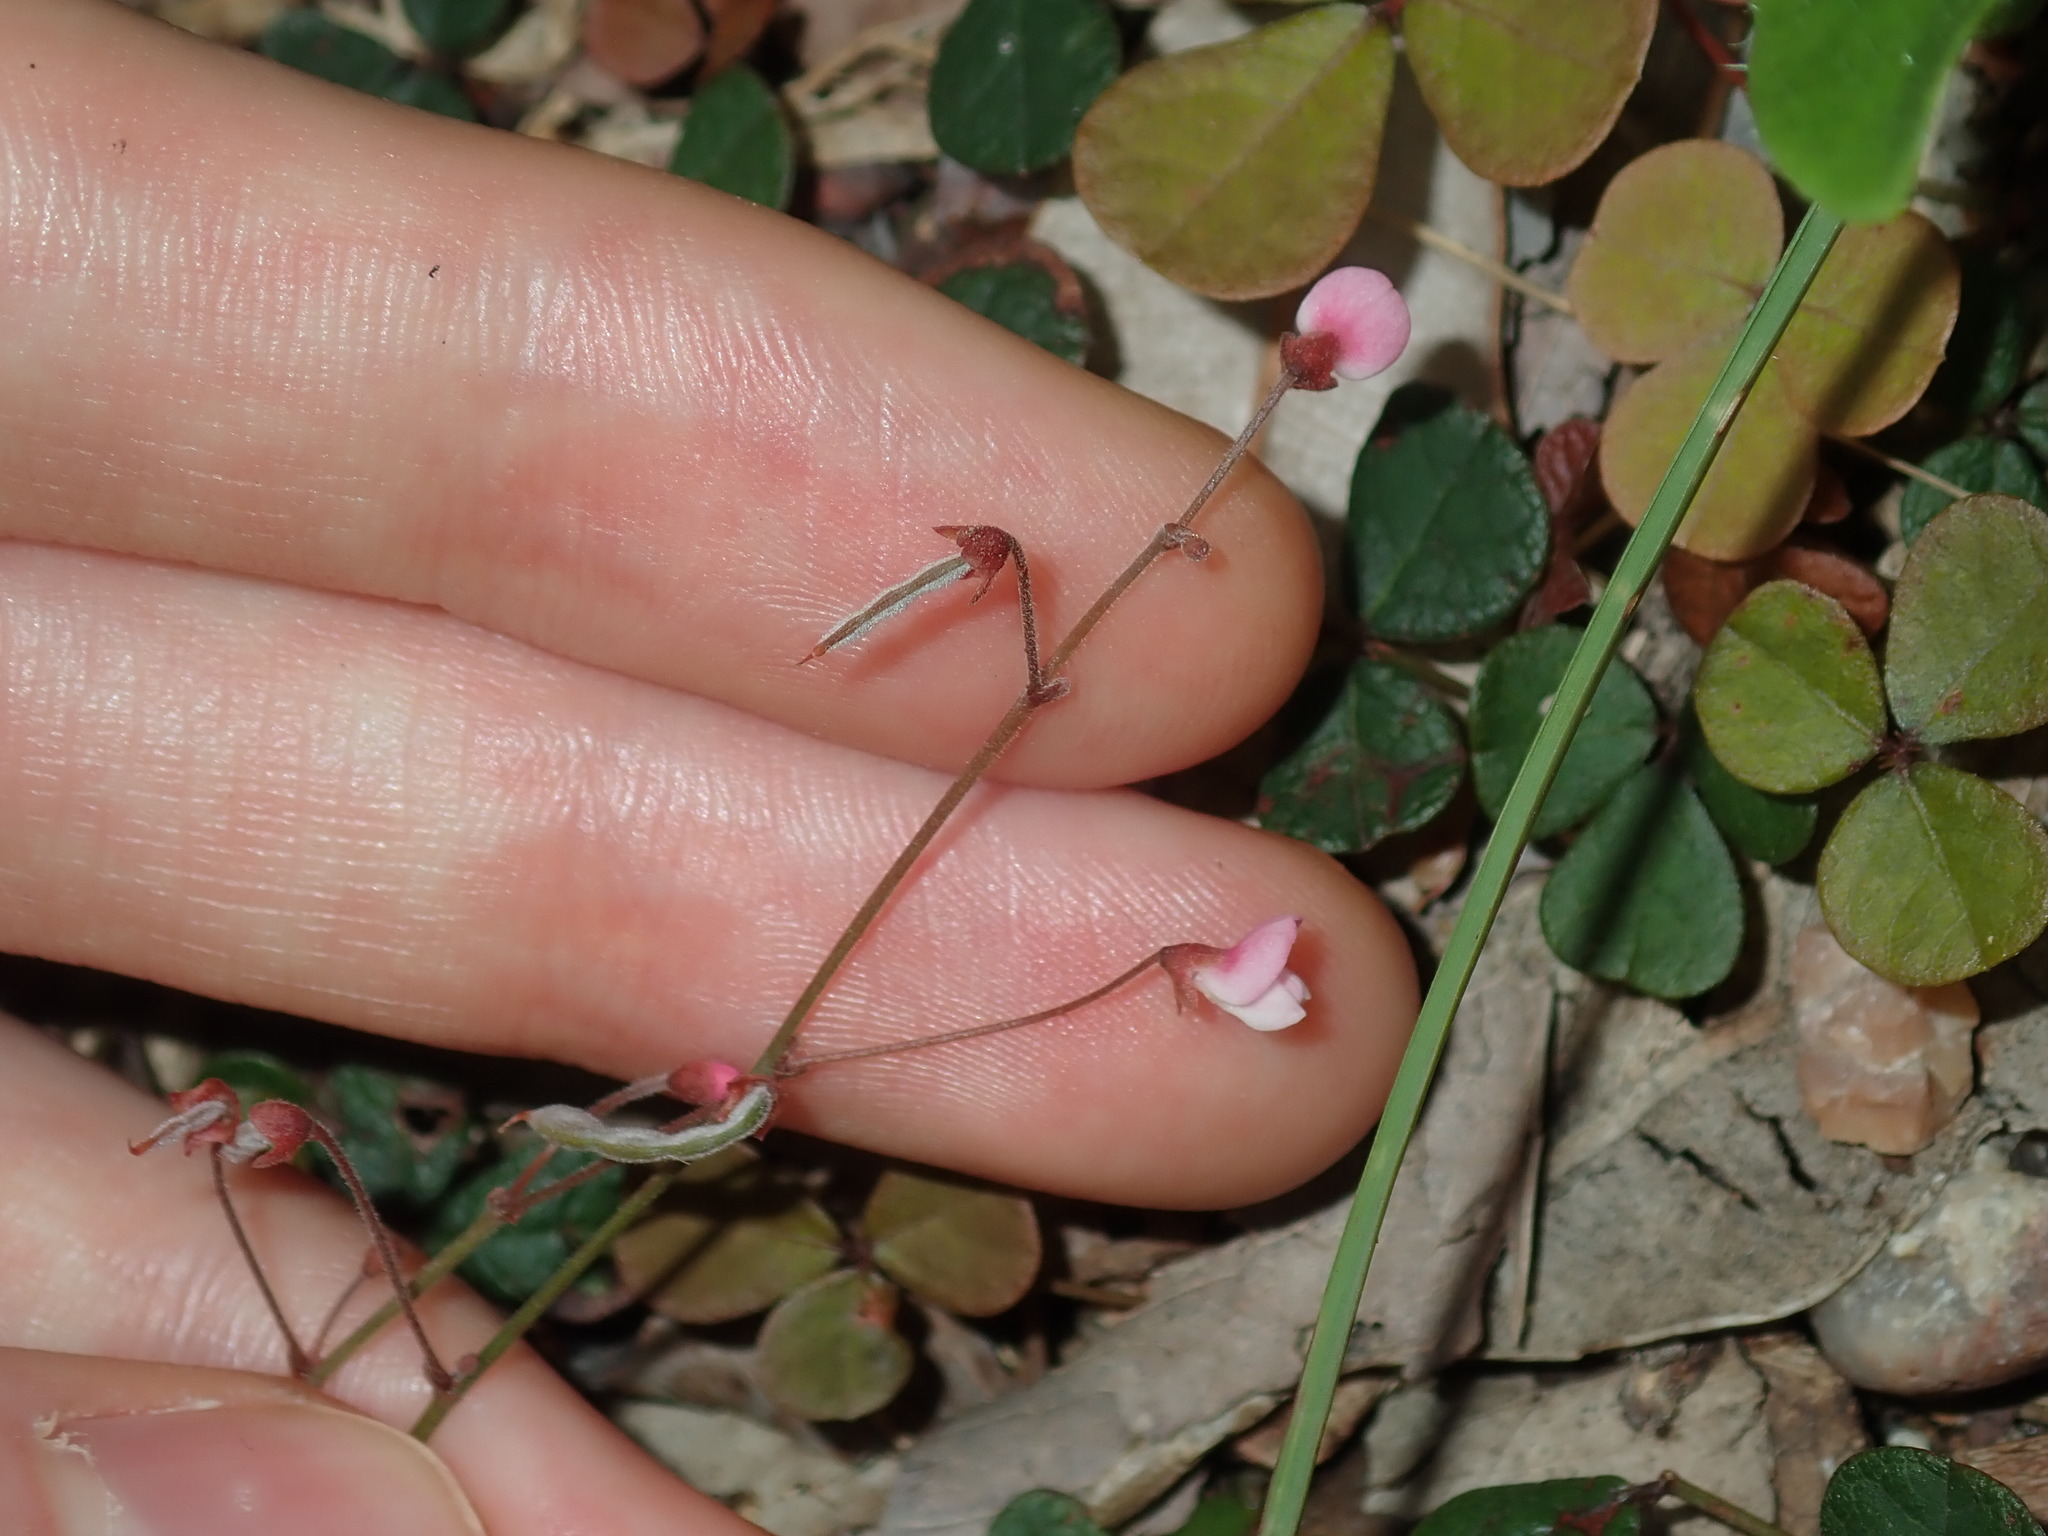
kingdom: Plantae
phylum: Tracheophyta
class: Magnoliopsida
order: Fabales
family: Fabaceae
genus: Pullenia
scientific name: Pullenia gunnii
